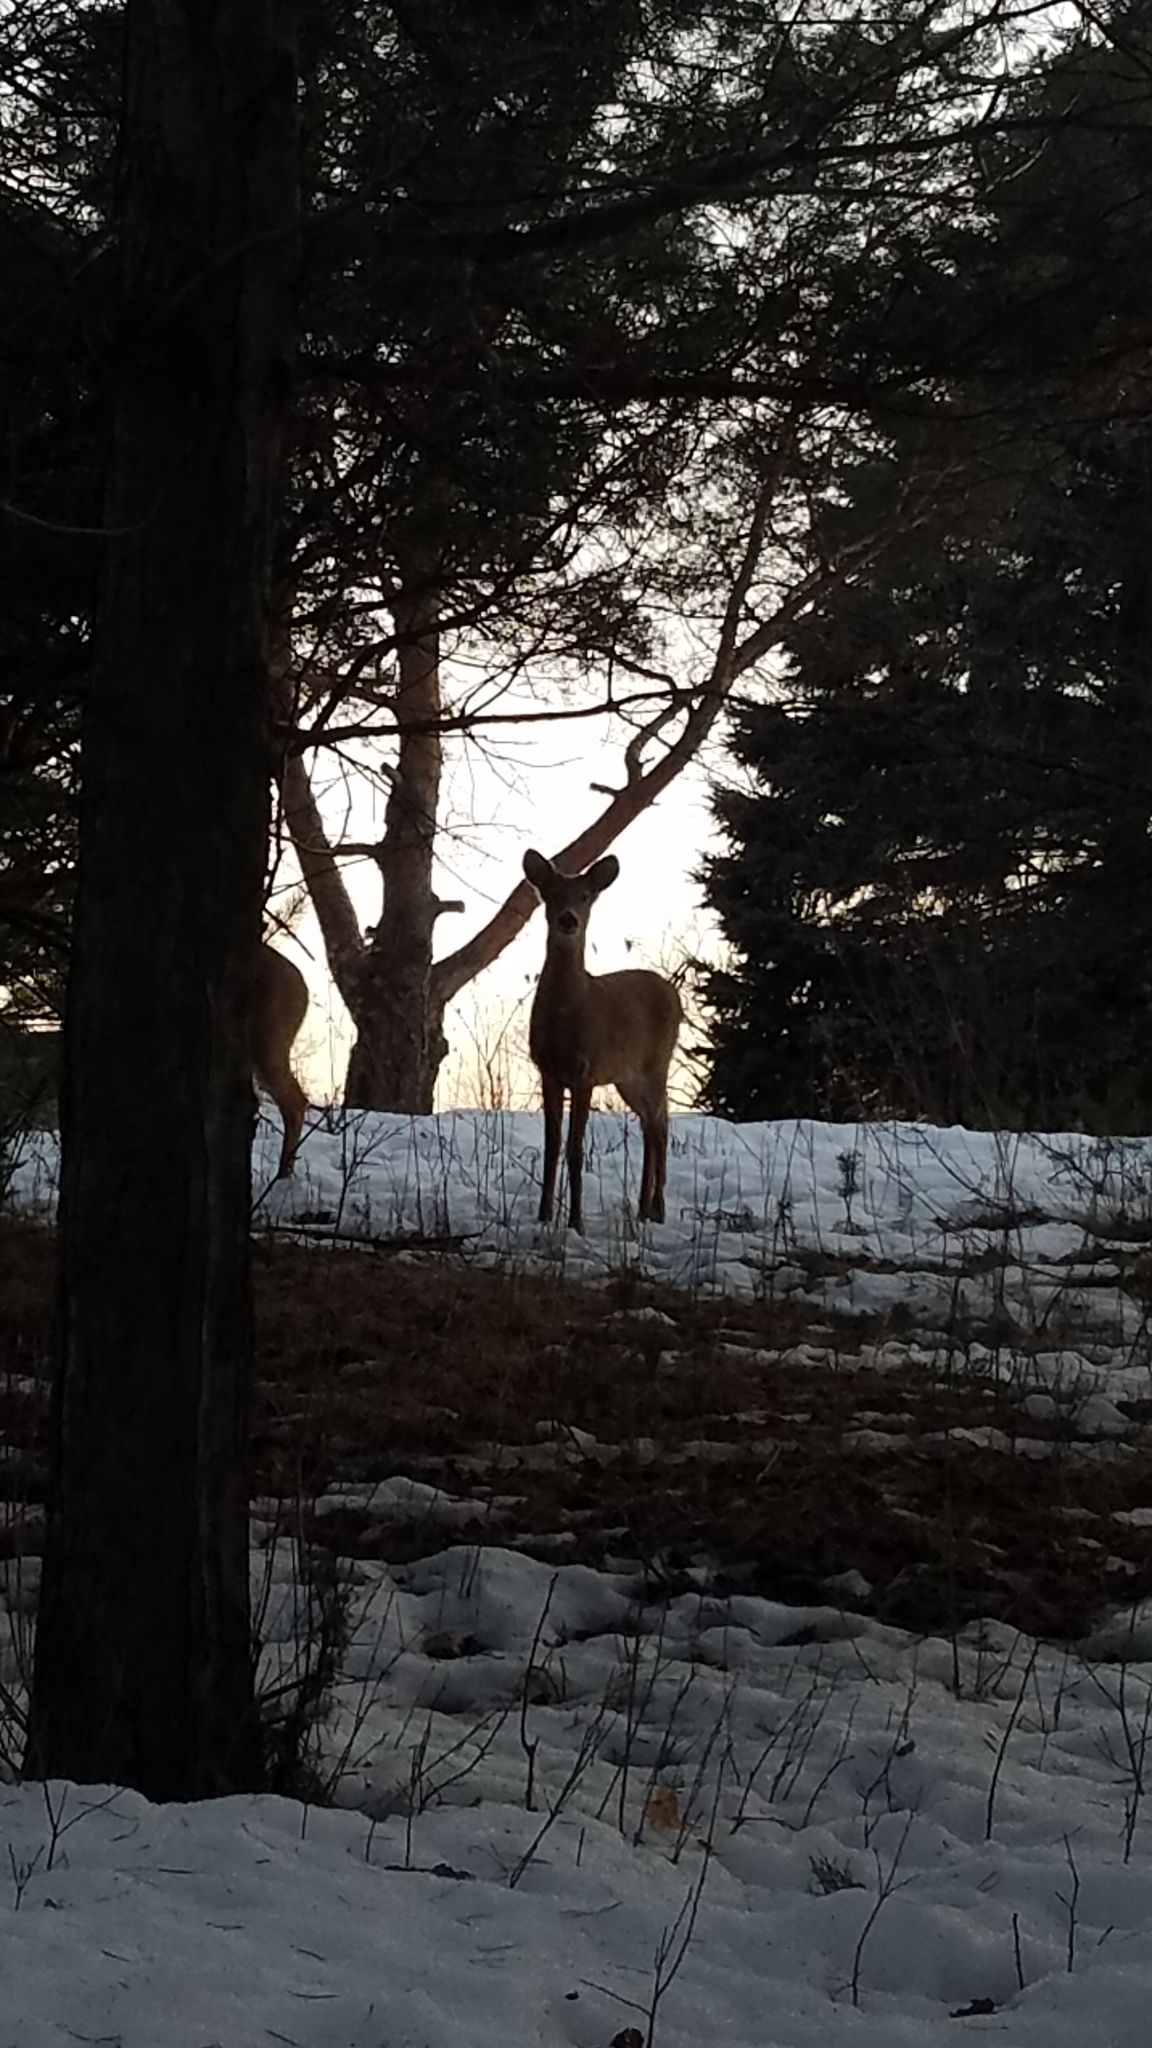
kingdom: Animalia
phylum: Chordata
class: Mammalia
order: Artiodactyla
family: Cervidae
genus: Odocoileus
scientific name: Odocoileus virginianus
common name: White-tailed deer
